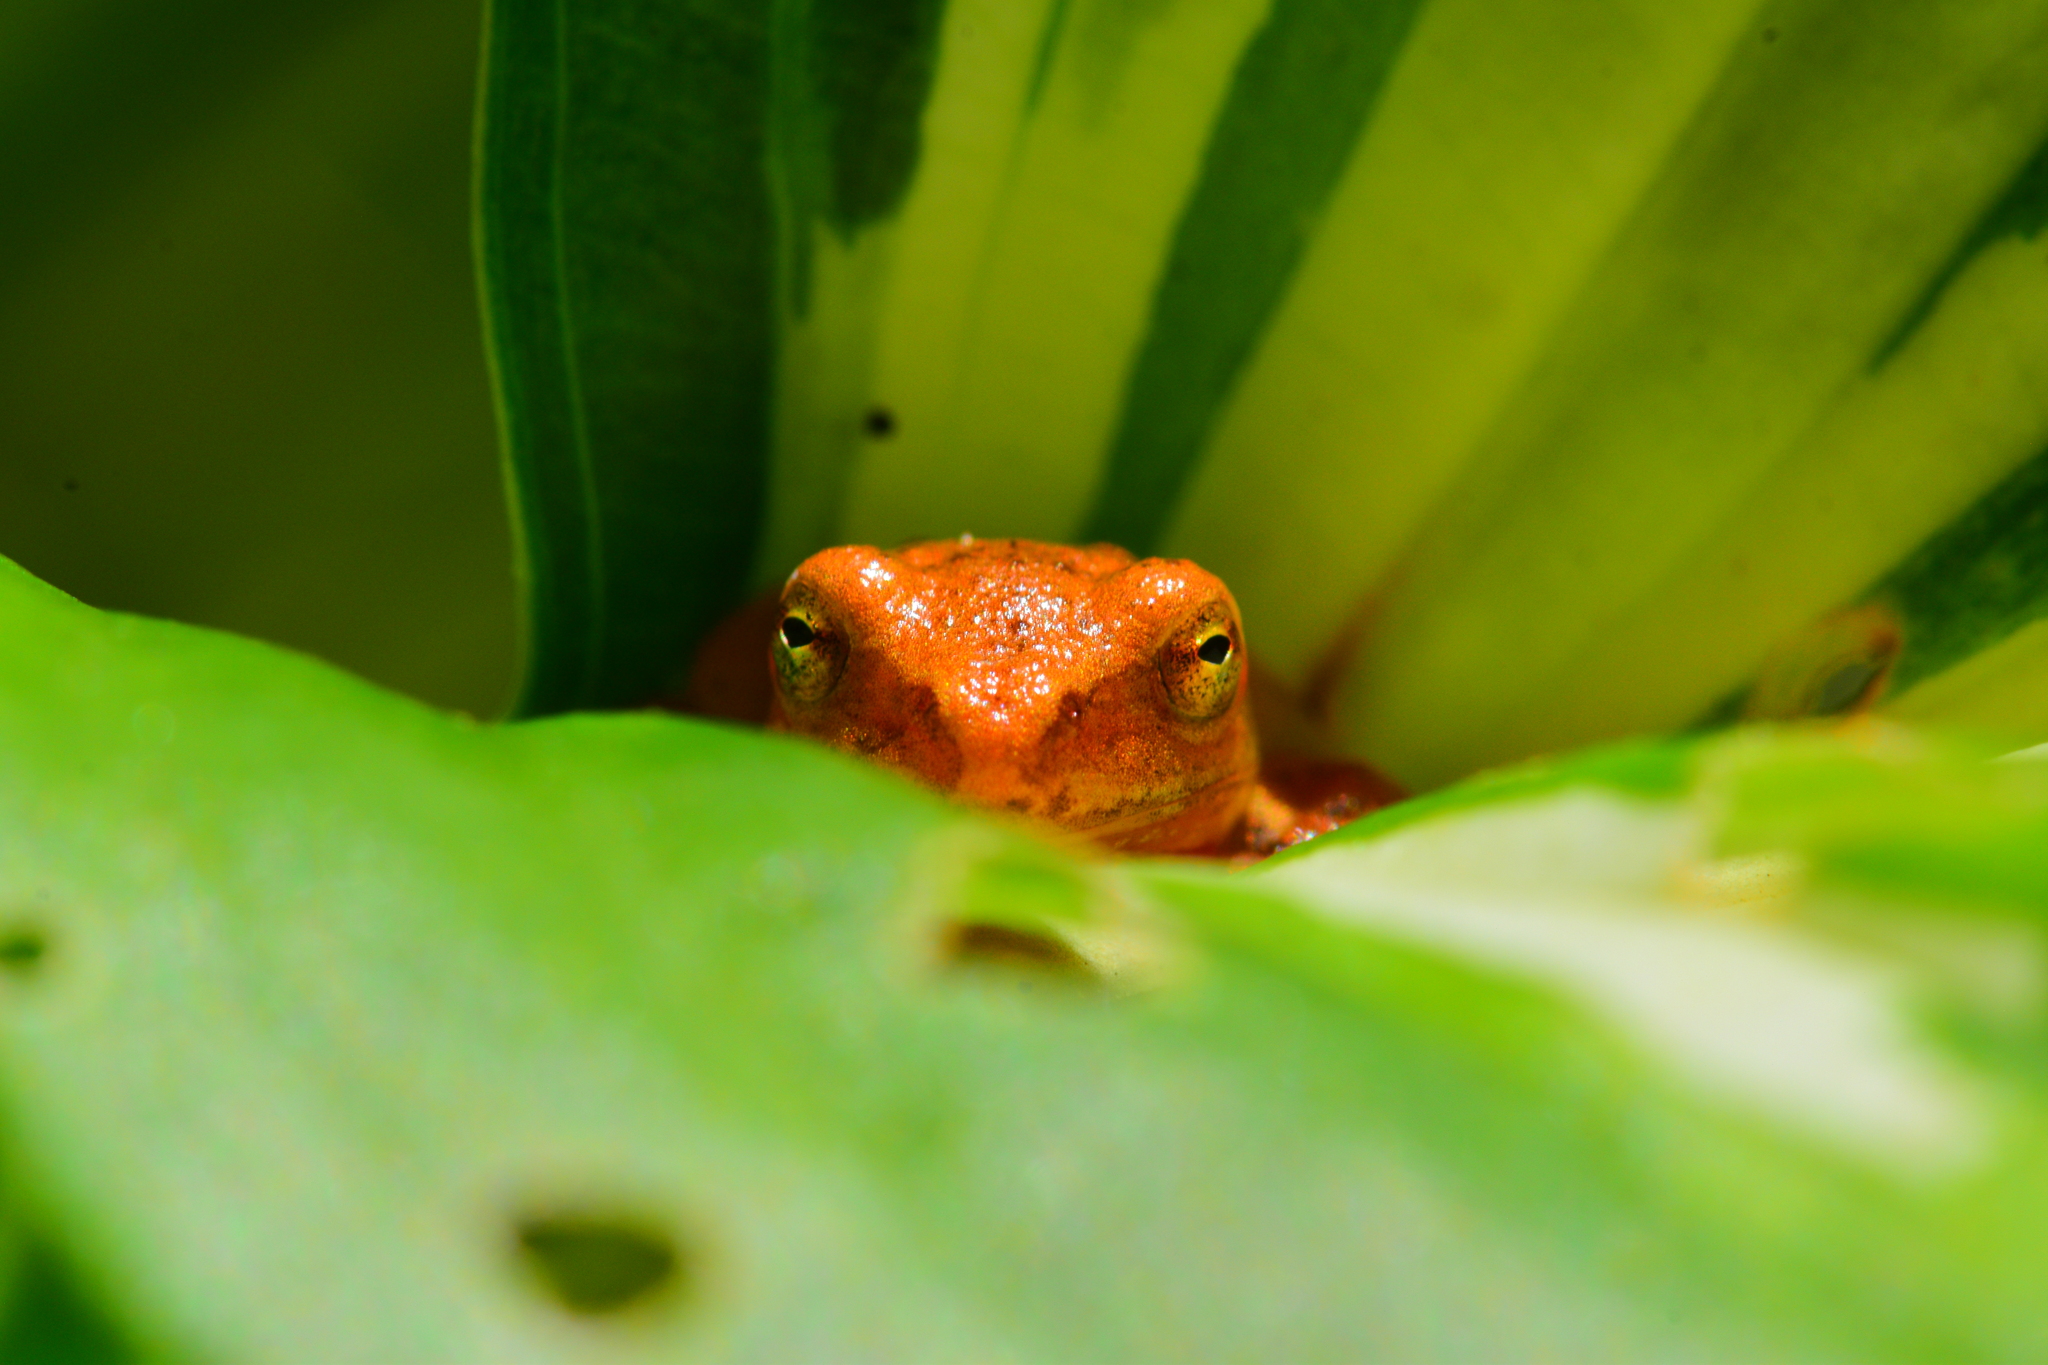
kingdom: Animalia
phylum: Chordata
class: Amphibia
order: Anura
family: Hylidae
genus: Pseudacris
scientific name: Pseudacris crucifer
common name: Spring peeper
